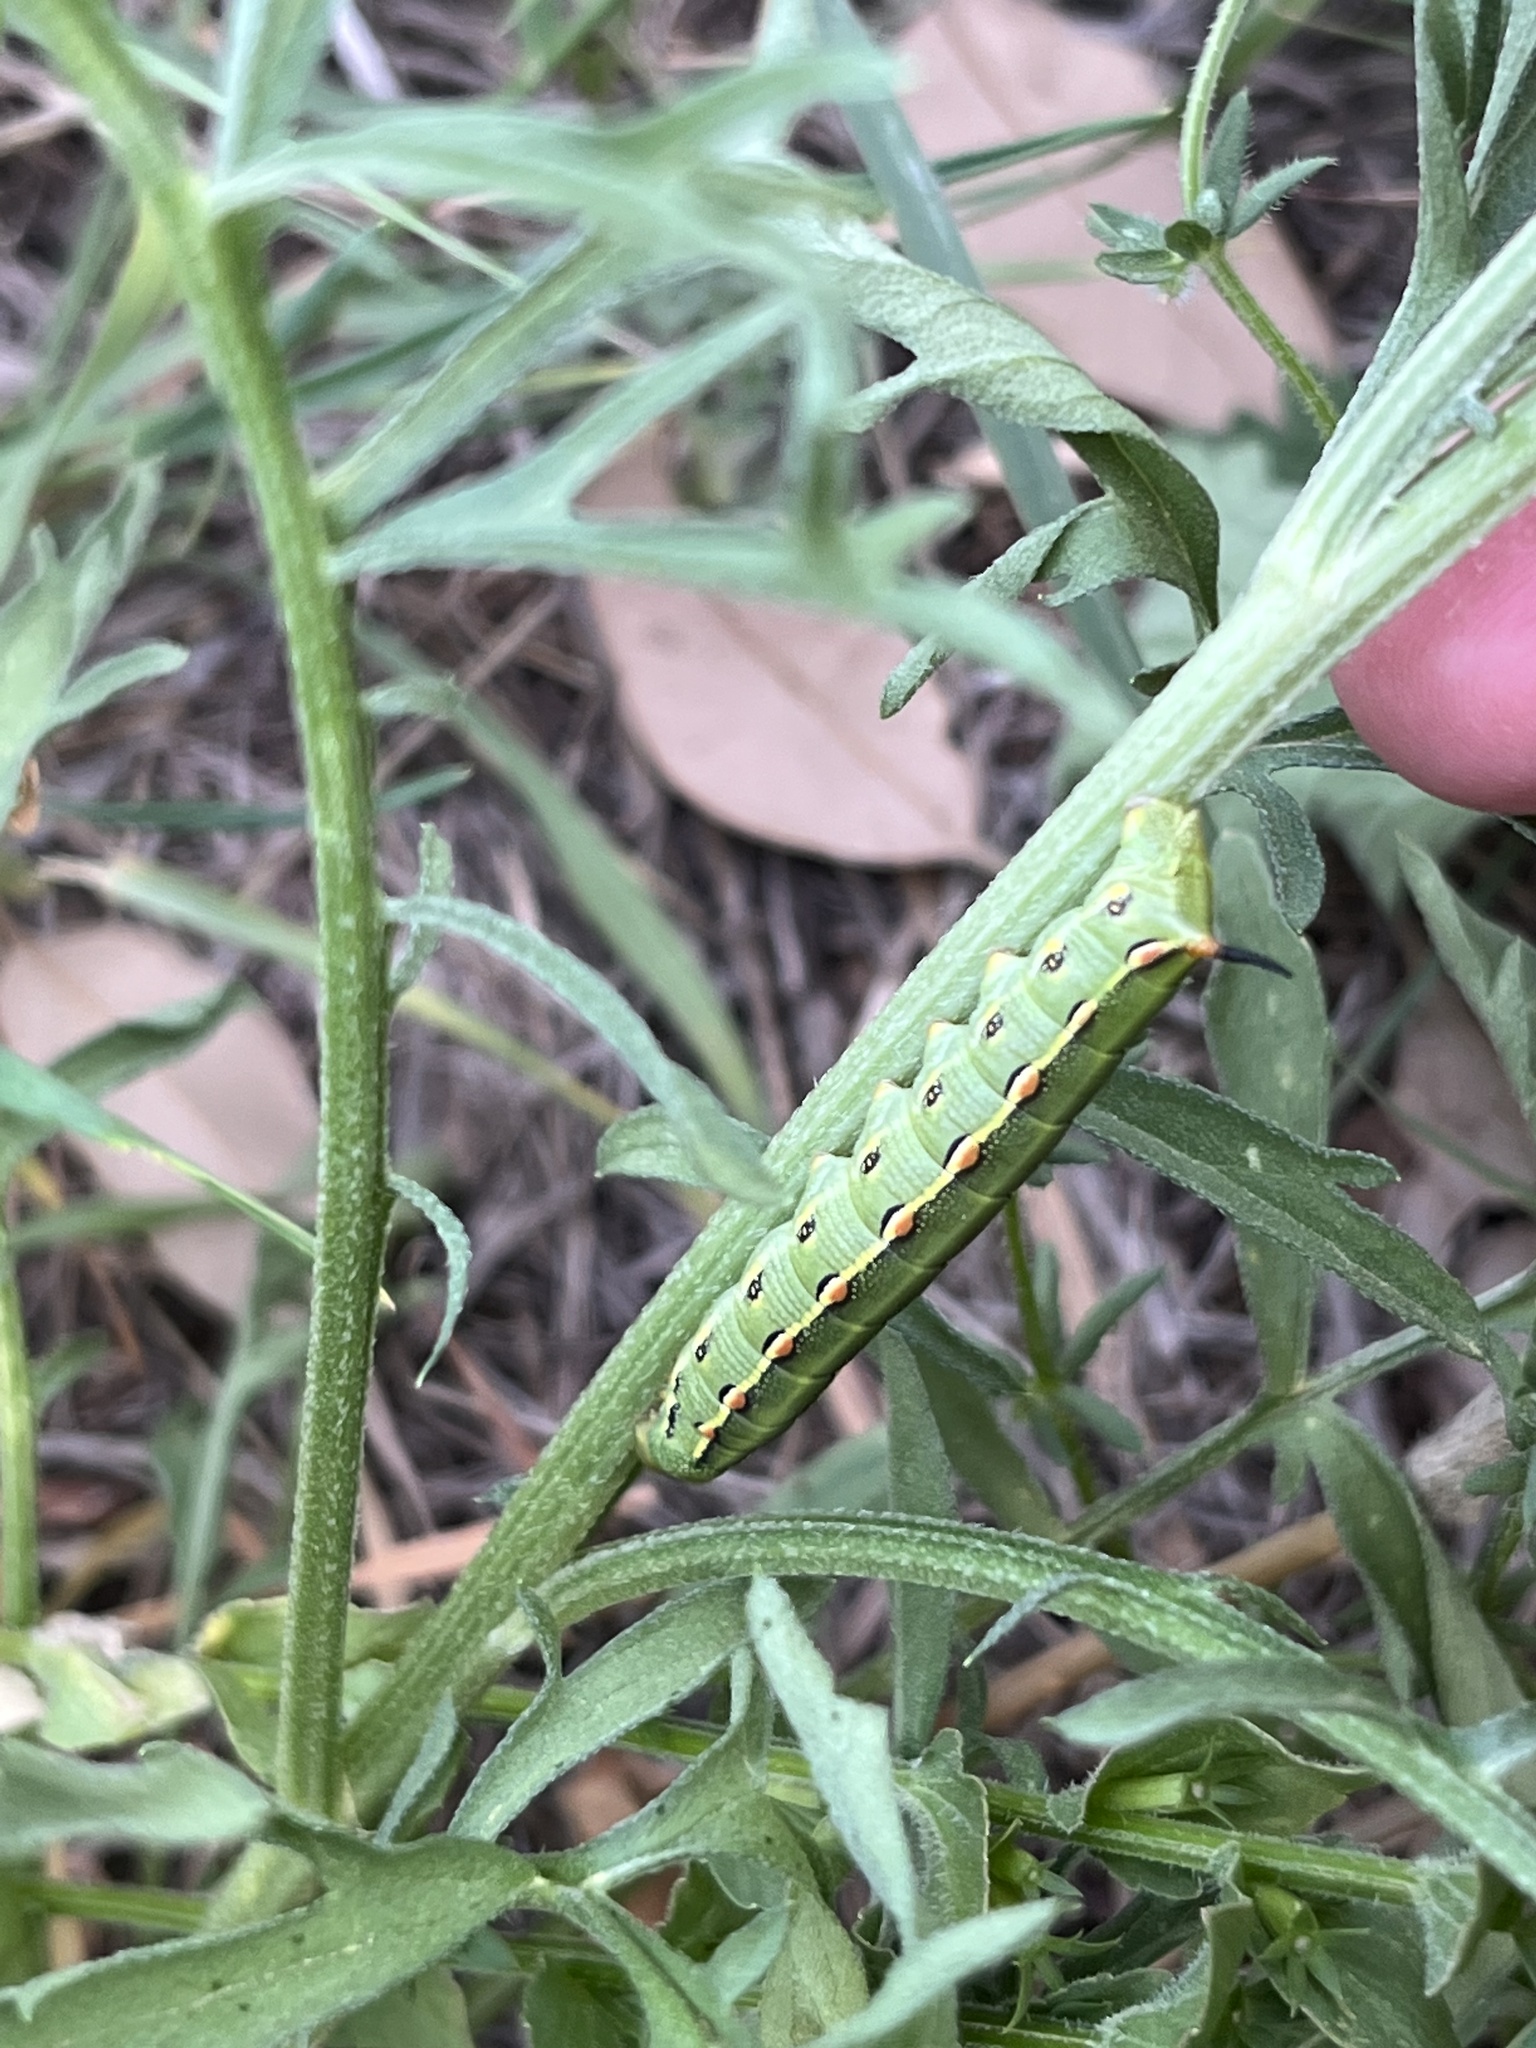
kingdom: Animalia
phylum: Arthropoda
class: Insecta
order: Lepidoptera
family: Sphingidae
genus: Hyles
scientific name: Hyles lineata
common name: White-lined sphinx
